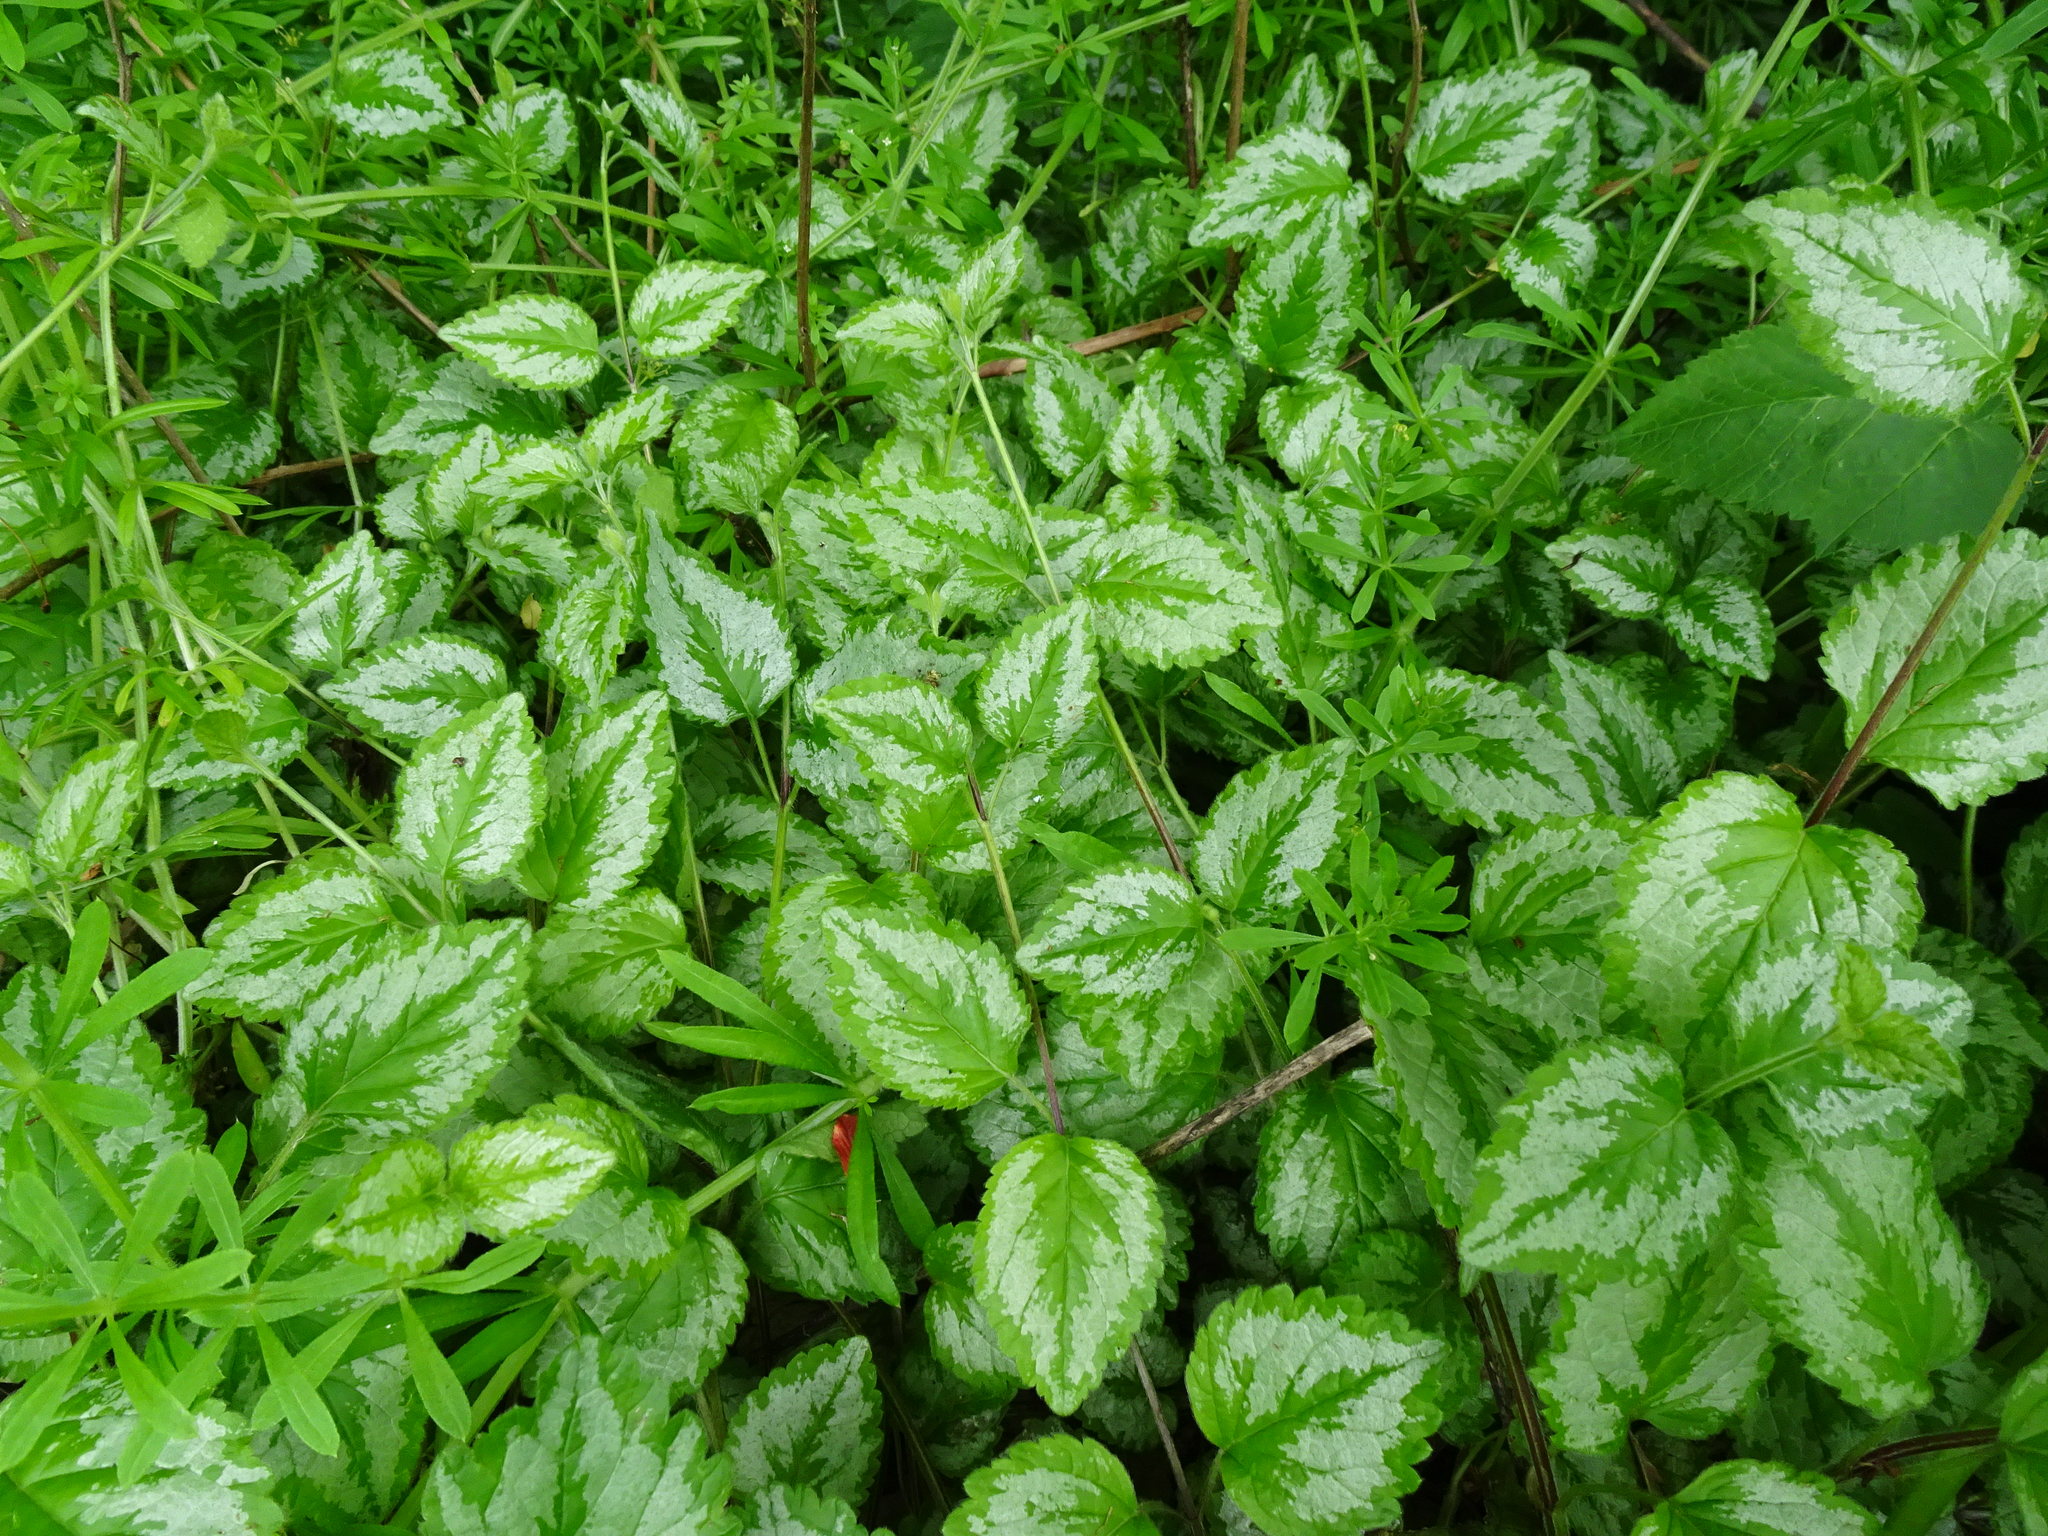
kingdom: Plantae
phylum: Tracheophyta
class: Magnoliopsida
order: Lamiales
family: Lamiaceae
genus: Lamium
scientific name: Lamium galeobdolon
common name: Yellow archangel
